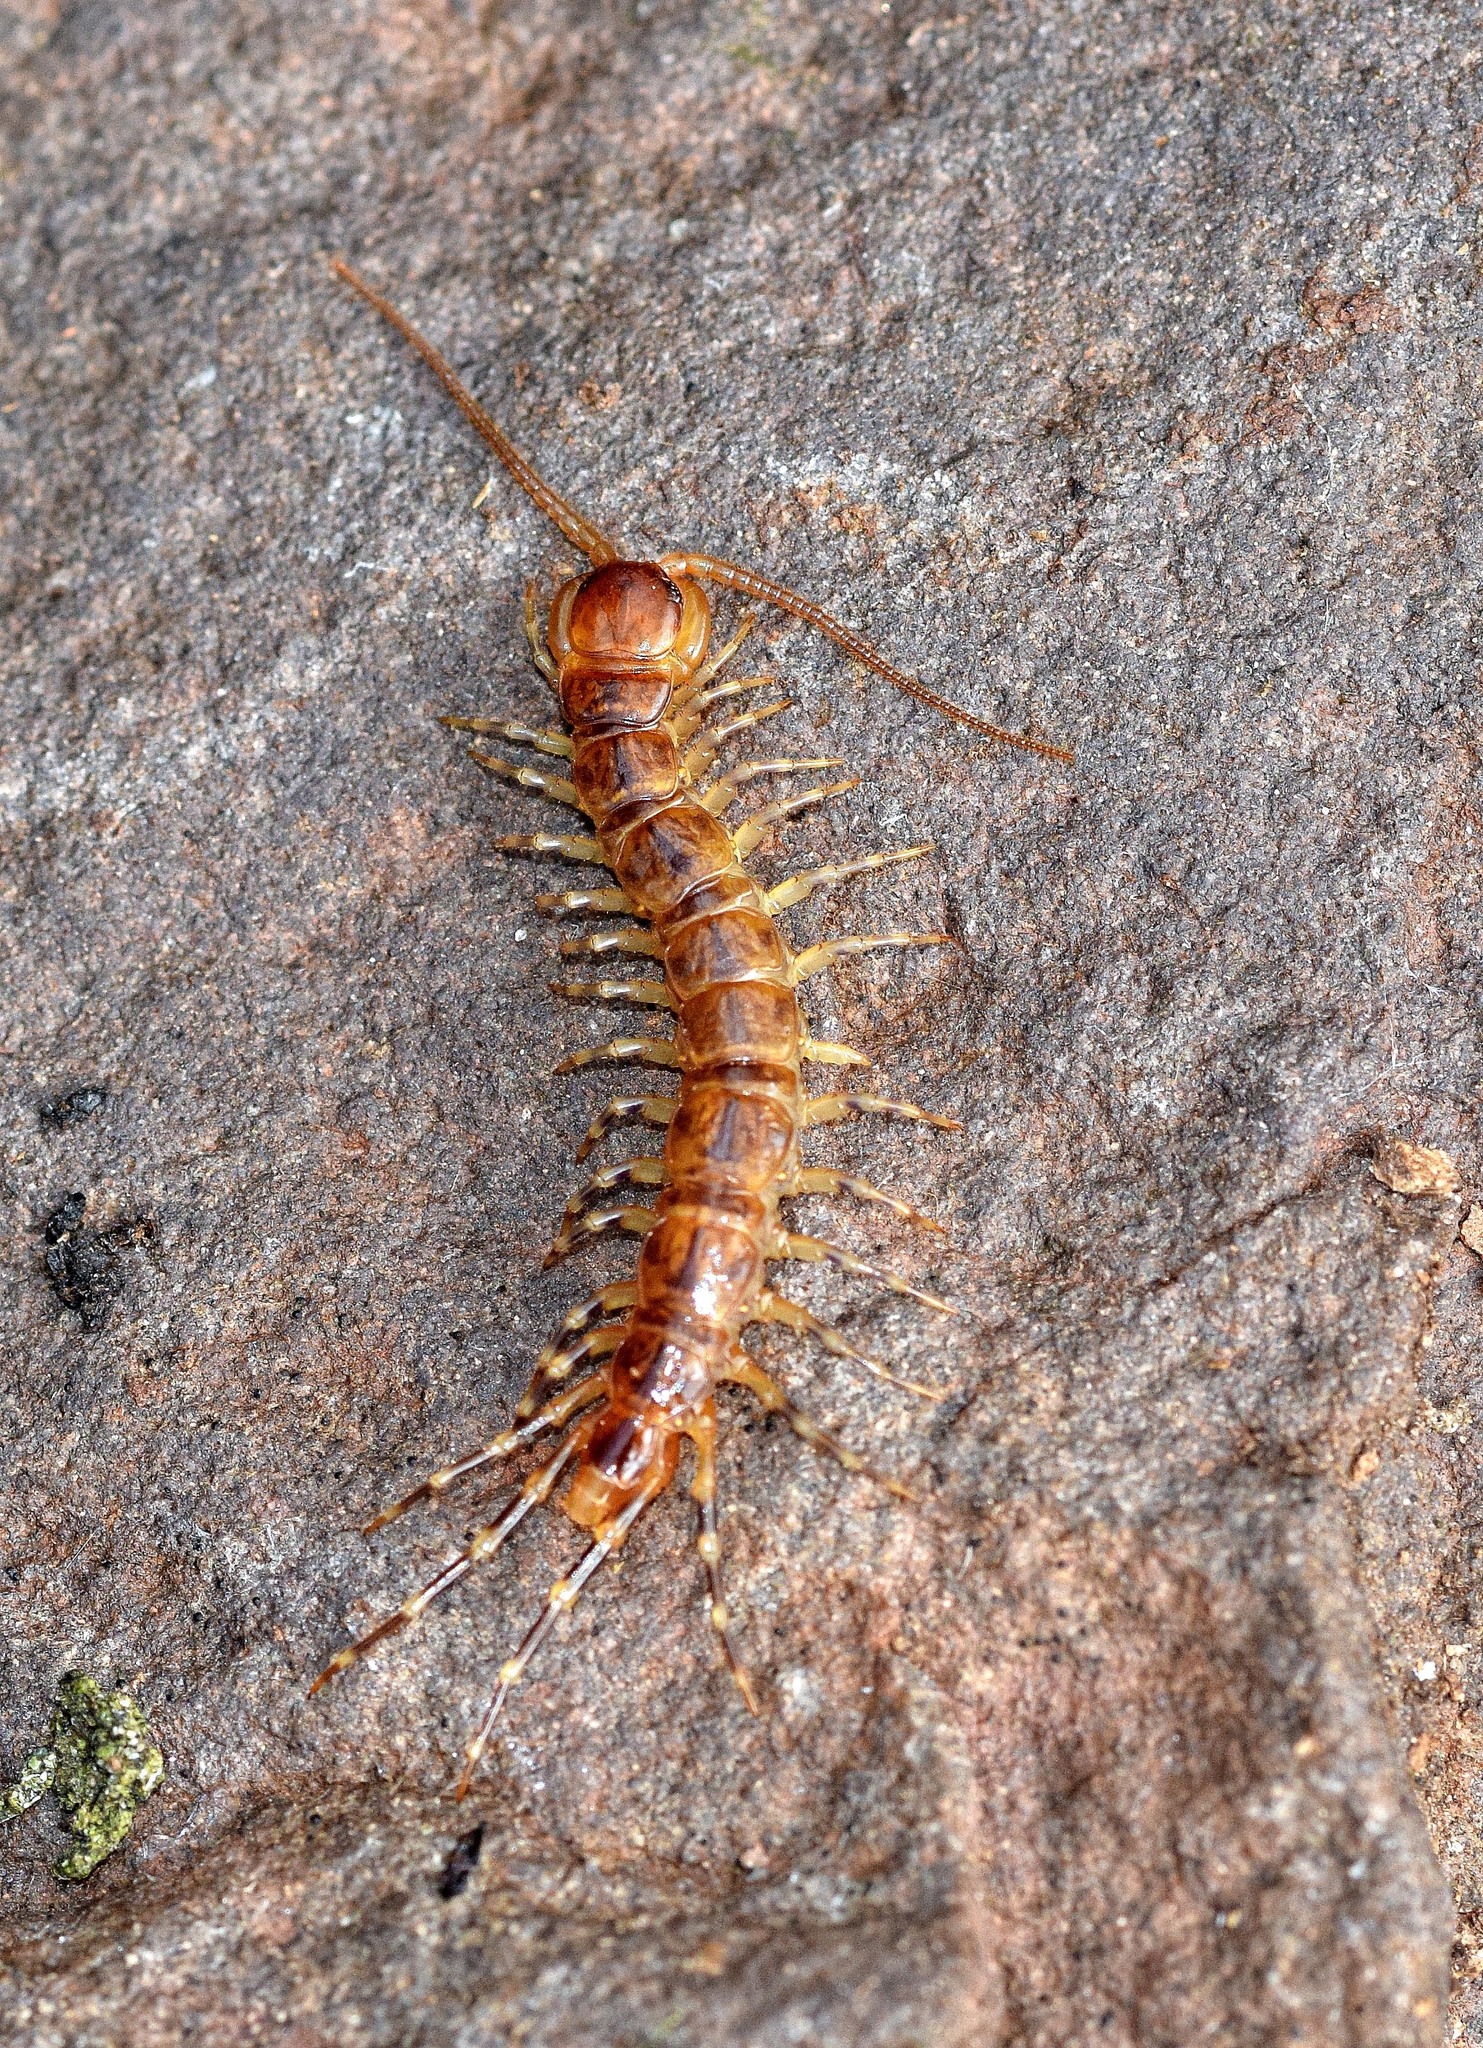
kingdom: Animalia
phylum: Arthropoda
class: Chilopoda
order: Lithobiomorpha
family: Lithobiidae
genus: Lithobius
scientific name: Lithobius variegatus
